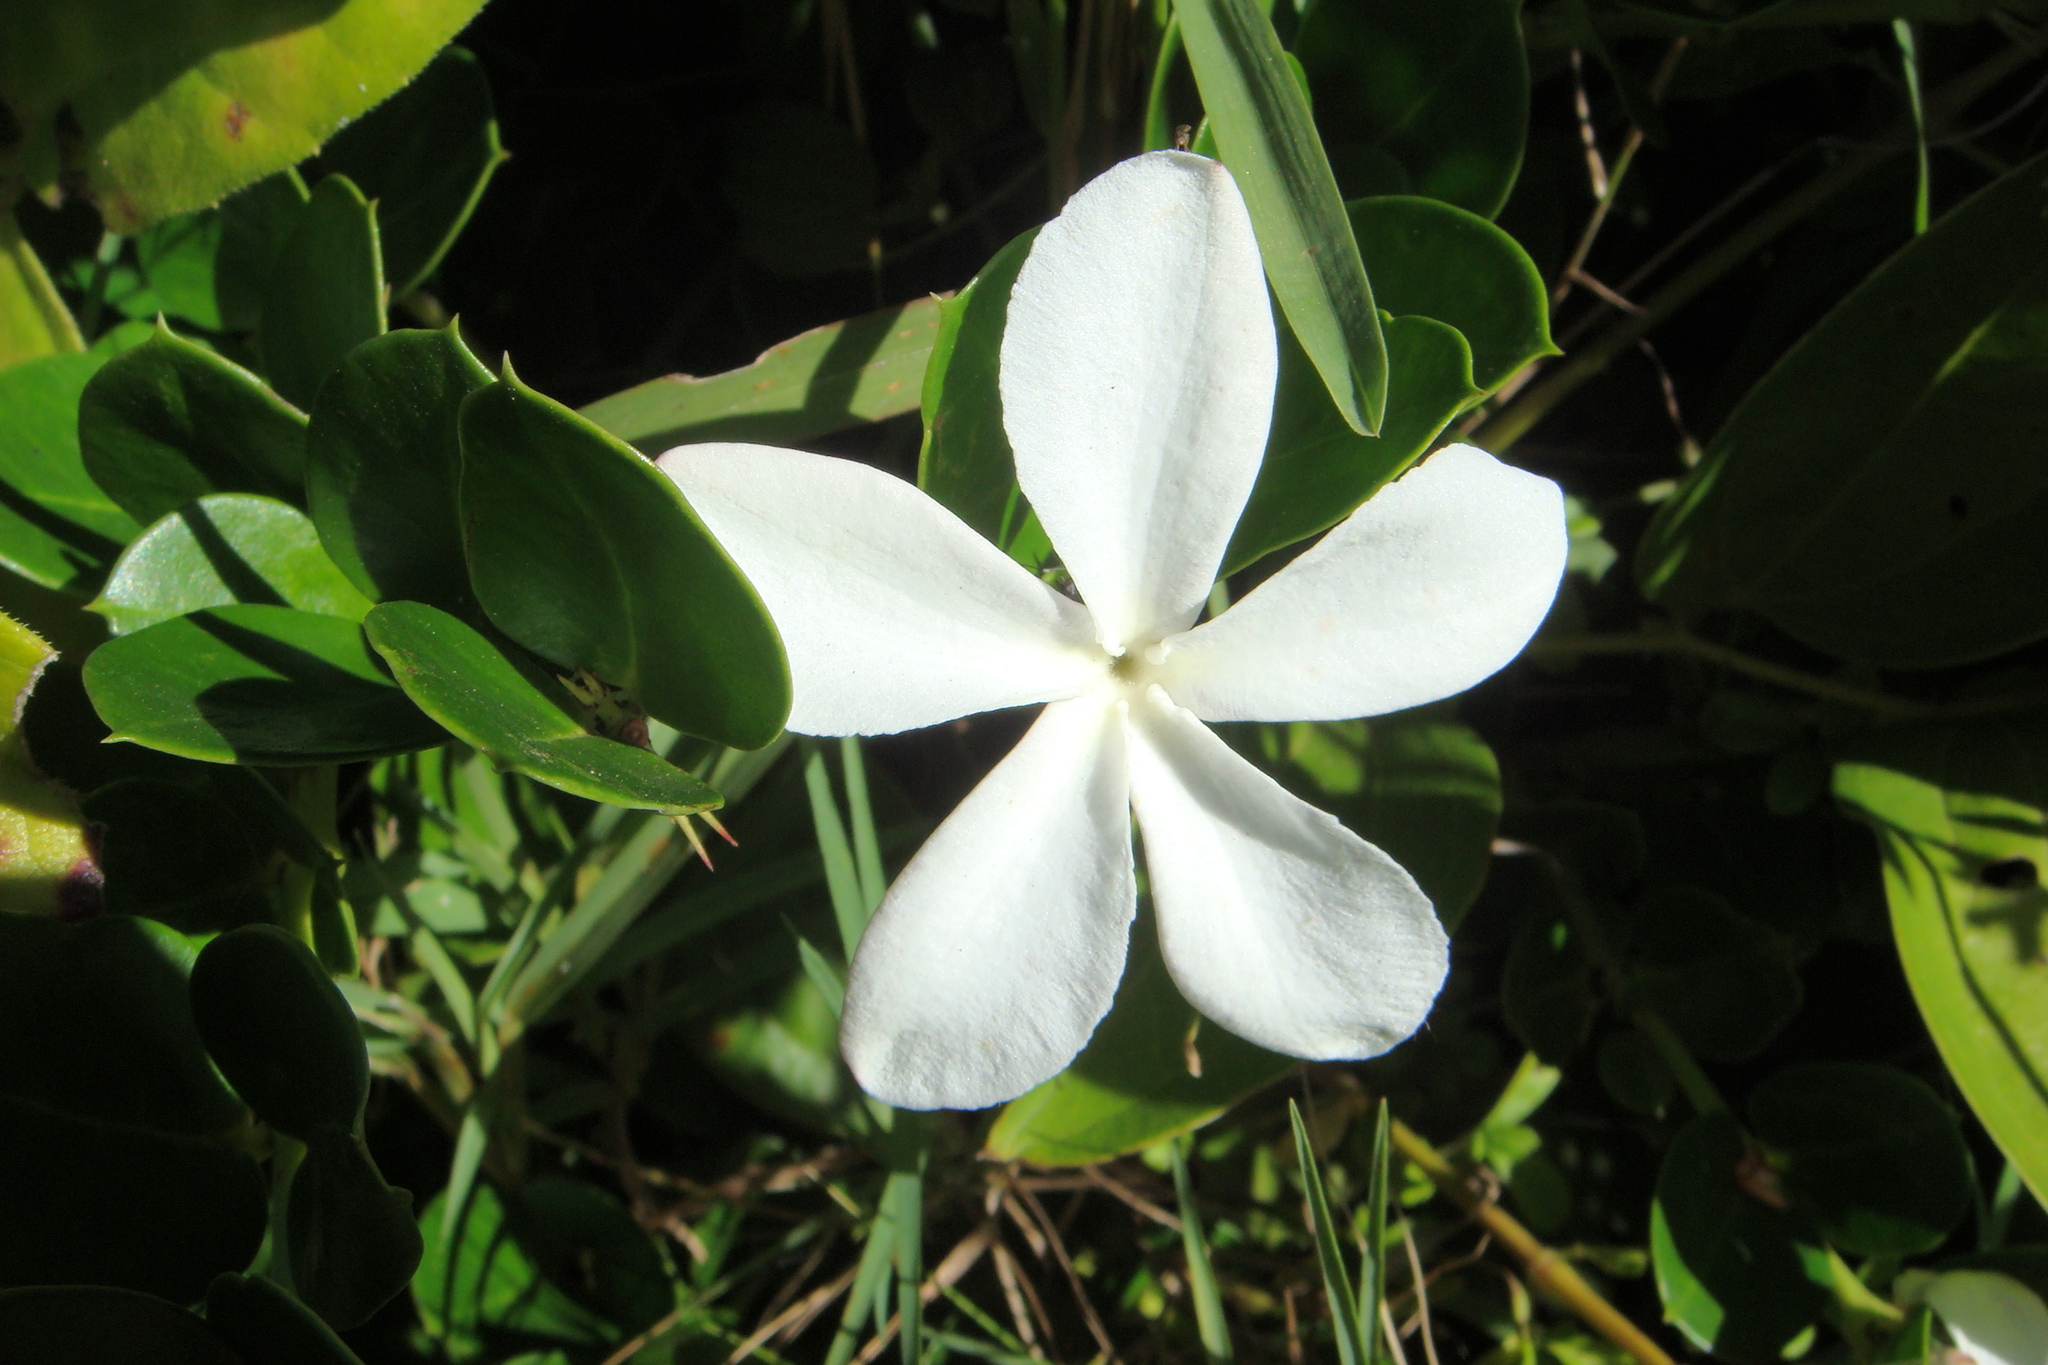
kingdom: Plantae
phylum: Tracheophyta
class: Magnoliopsida
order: Gentianales
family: Apocynaceae
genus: Carissa
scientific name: Carissa macrocarpa
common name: Natal plum
